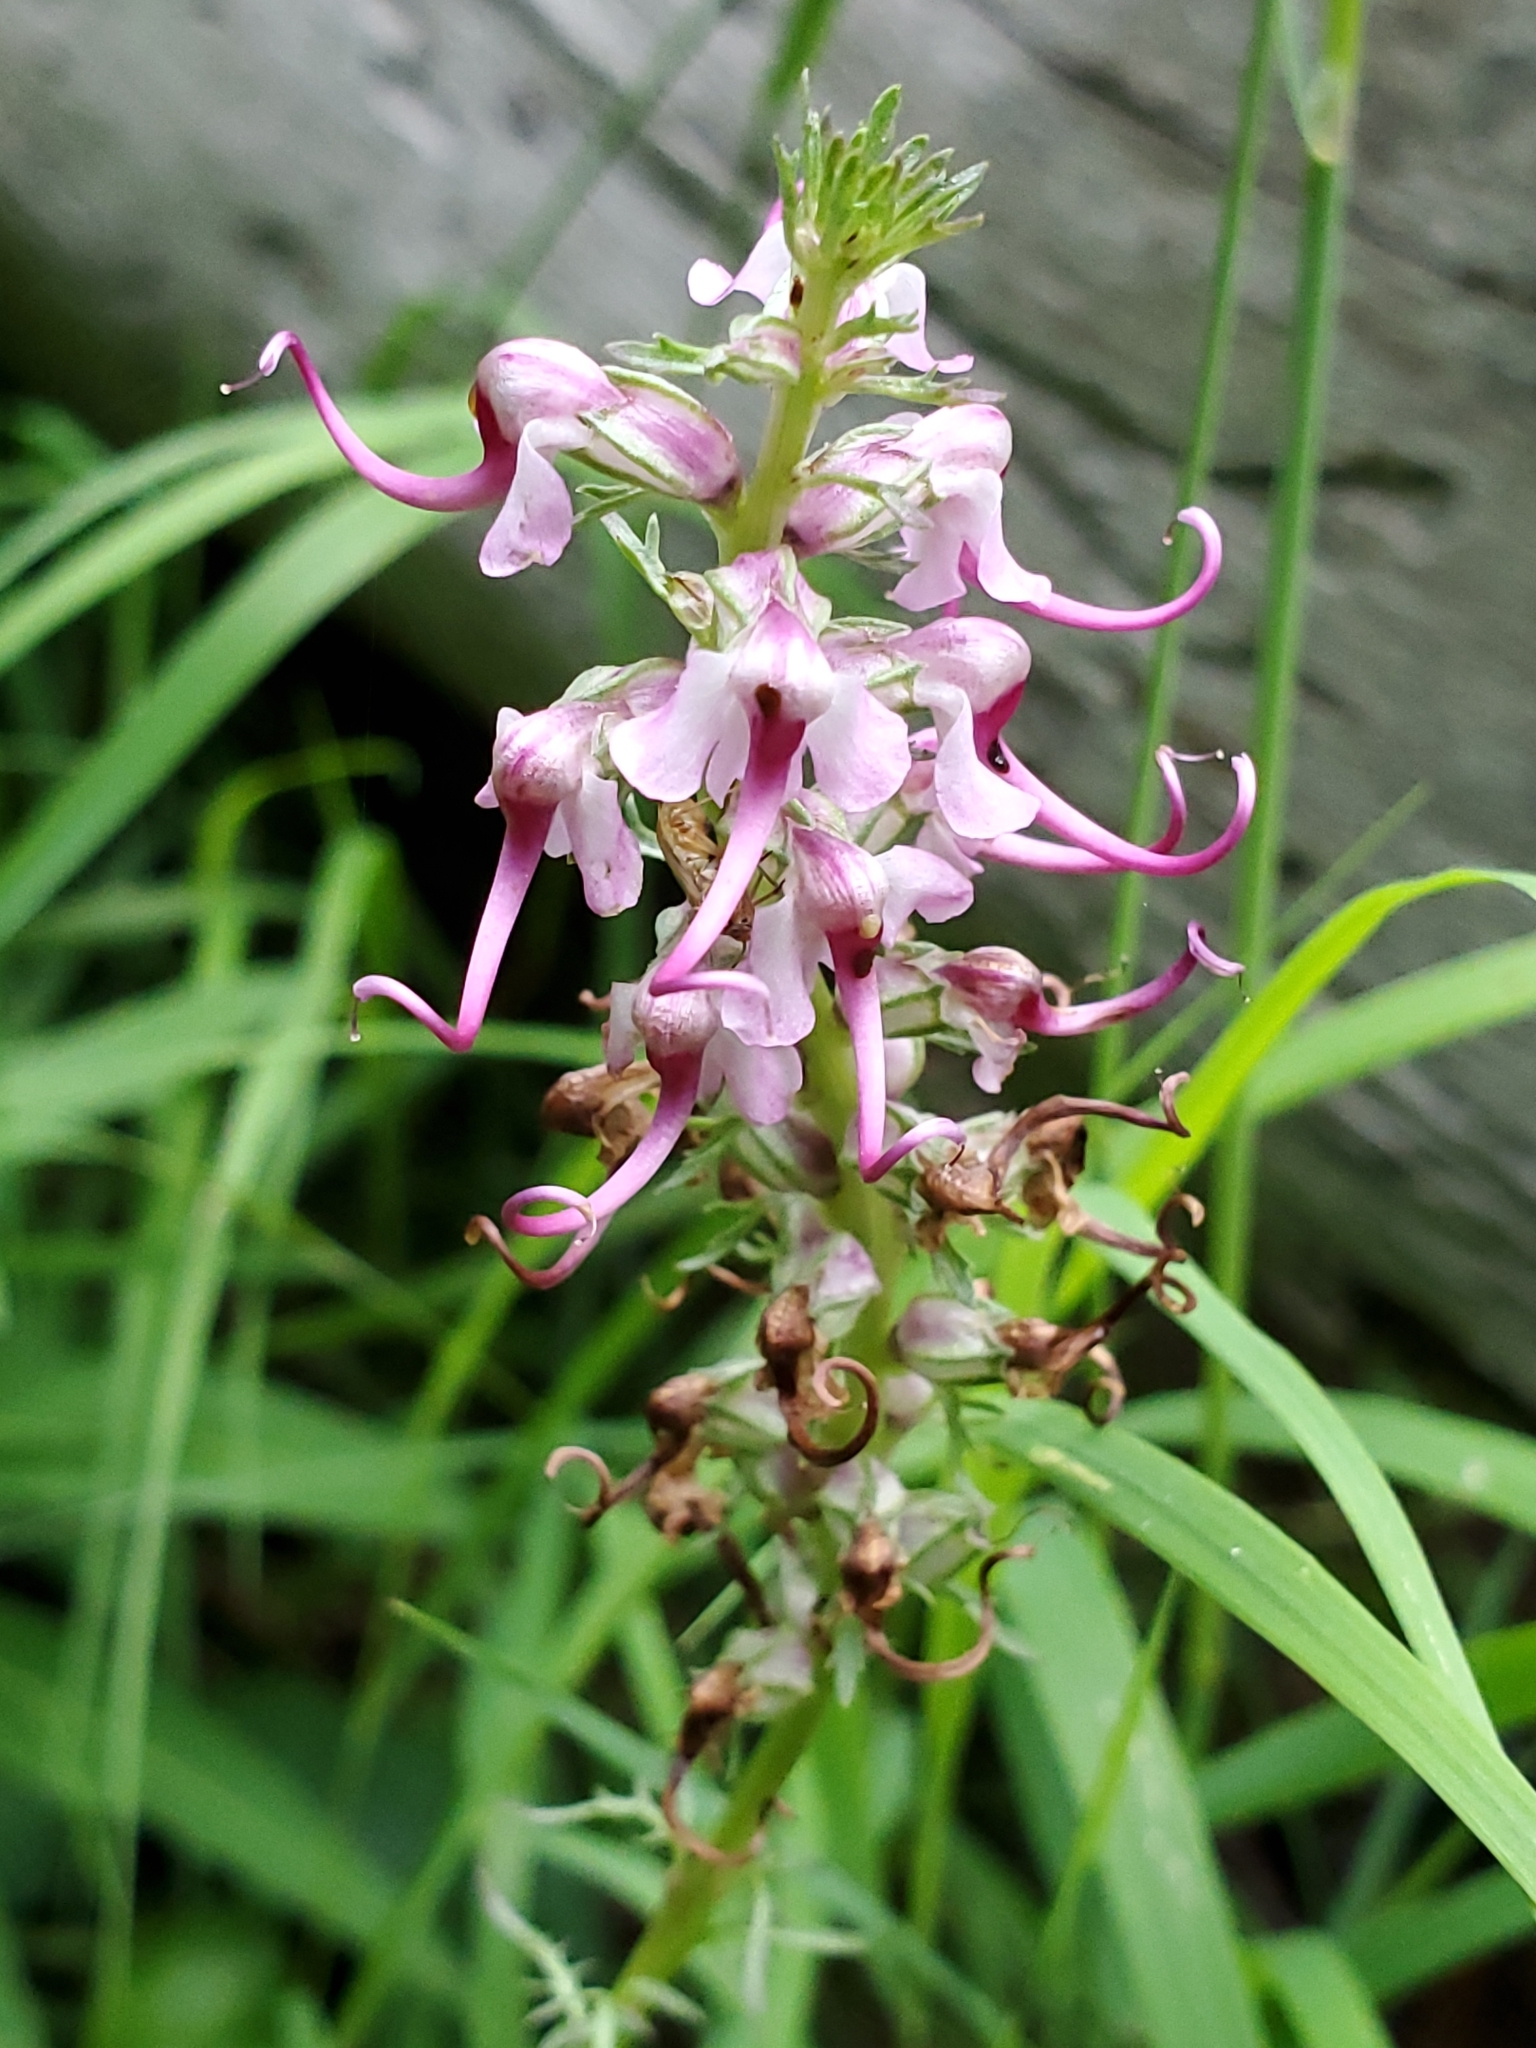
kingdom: Plantae
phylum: Tracheophyta
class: Magnoliopsida
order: Lamiales
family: Orobanchaceae
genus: Pedicularis
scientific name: Pedicularis groenlandica
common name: Elephant's-head
